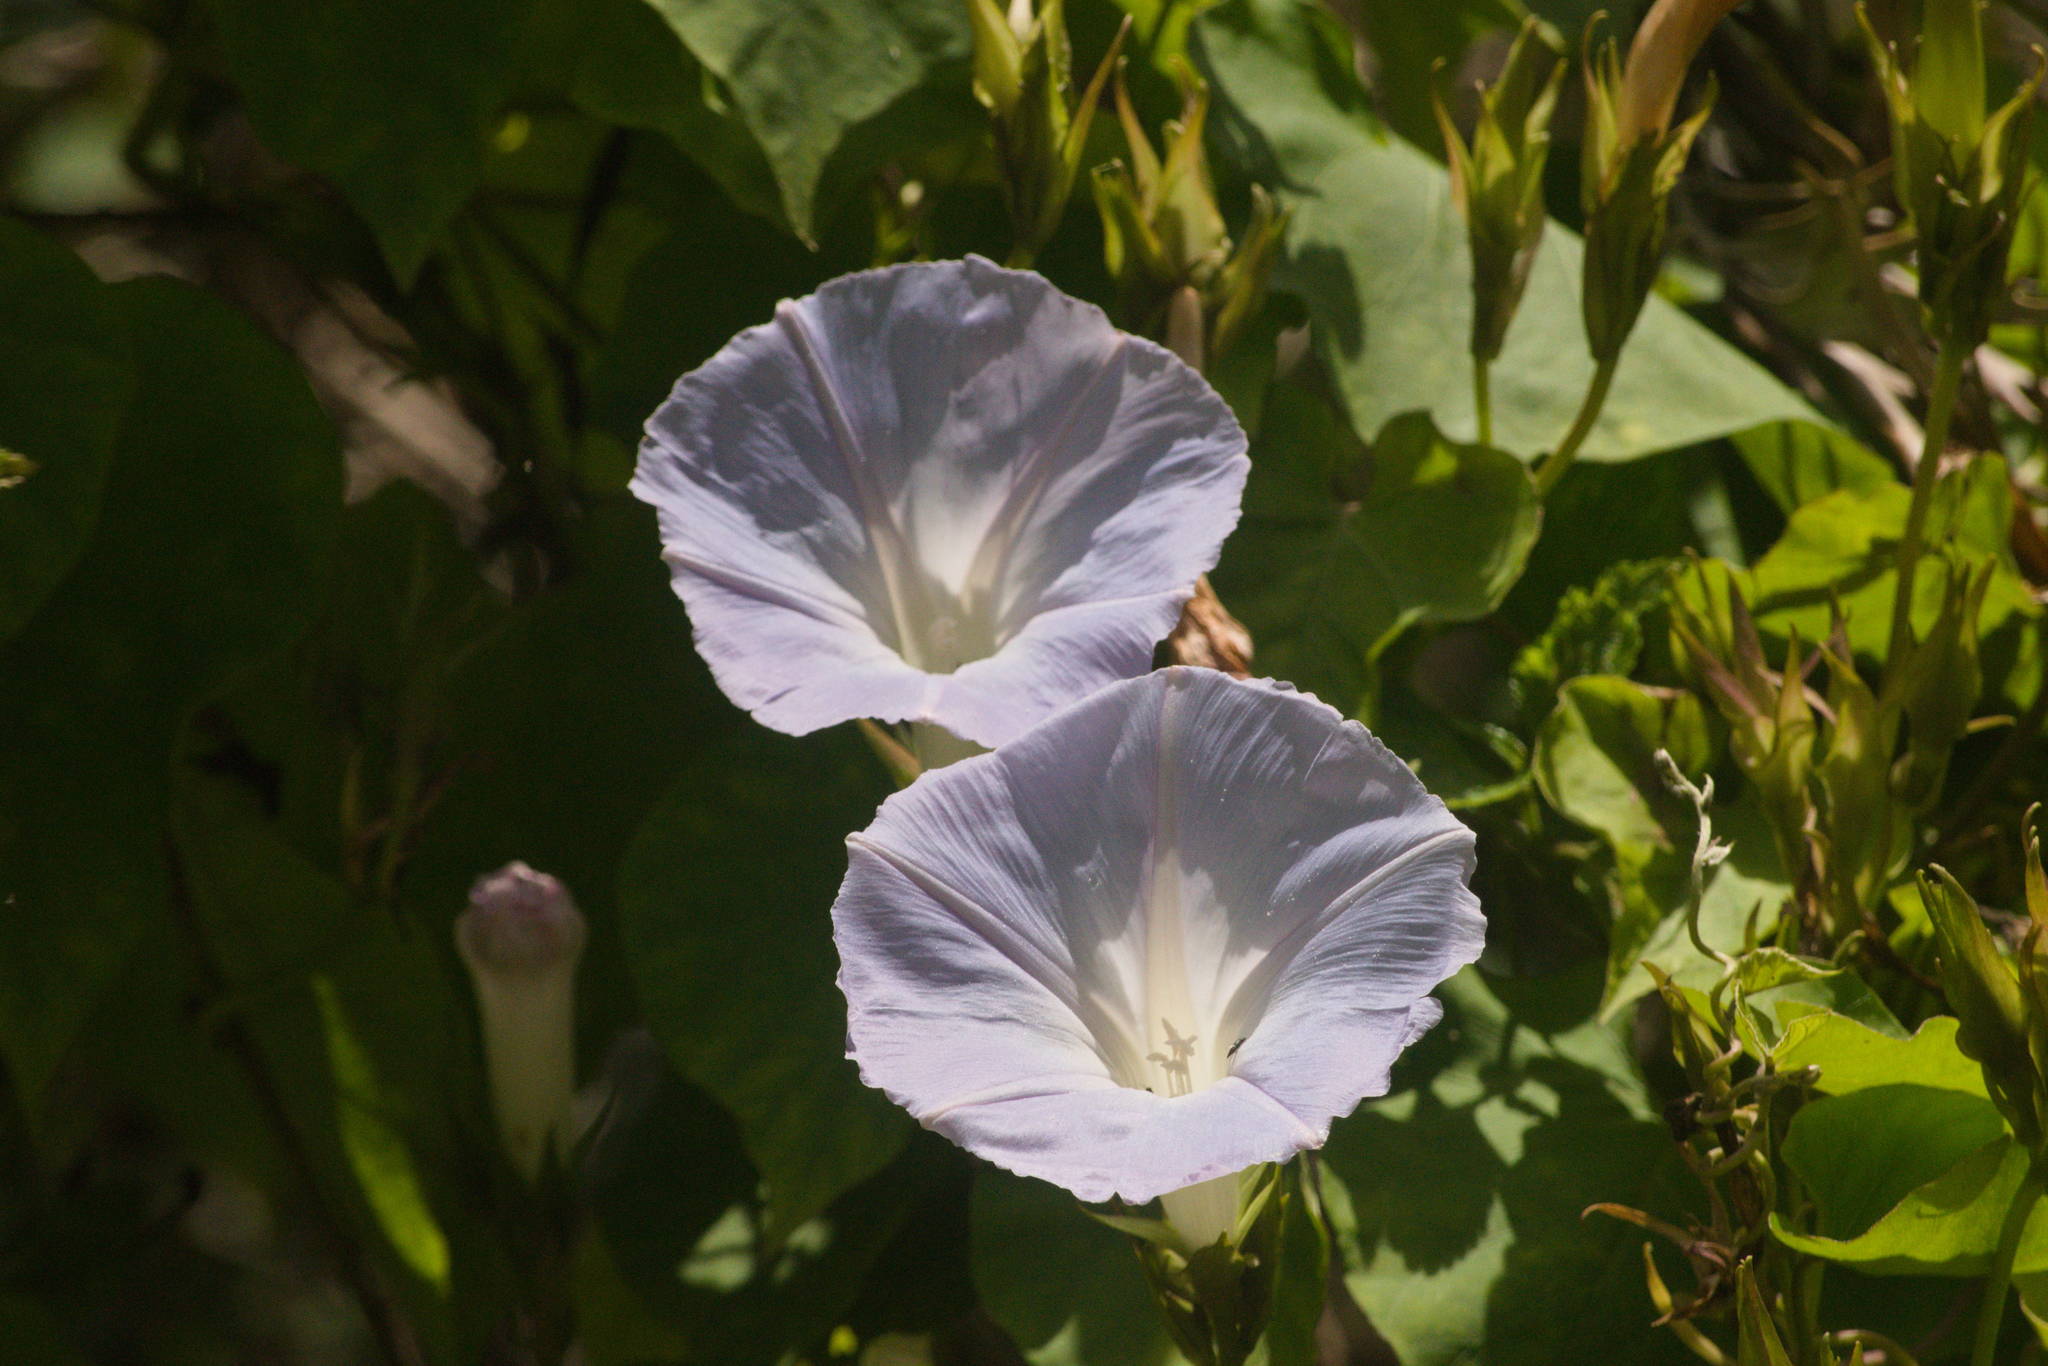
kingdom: Plantae
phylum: Tracheophyta
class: Magnoliopsida
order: Solanales
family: Convolvulaceae
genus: Ipomoea
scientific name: Ipomoea indica
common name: Blue dawnflower
